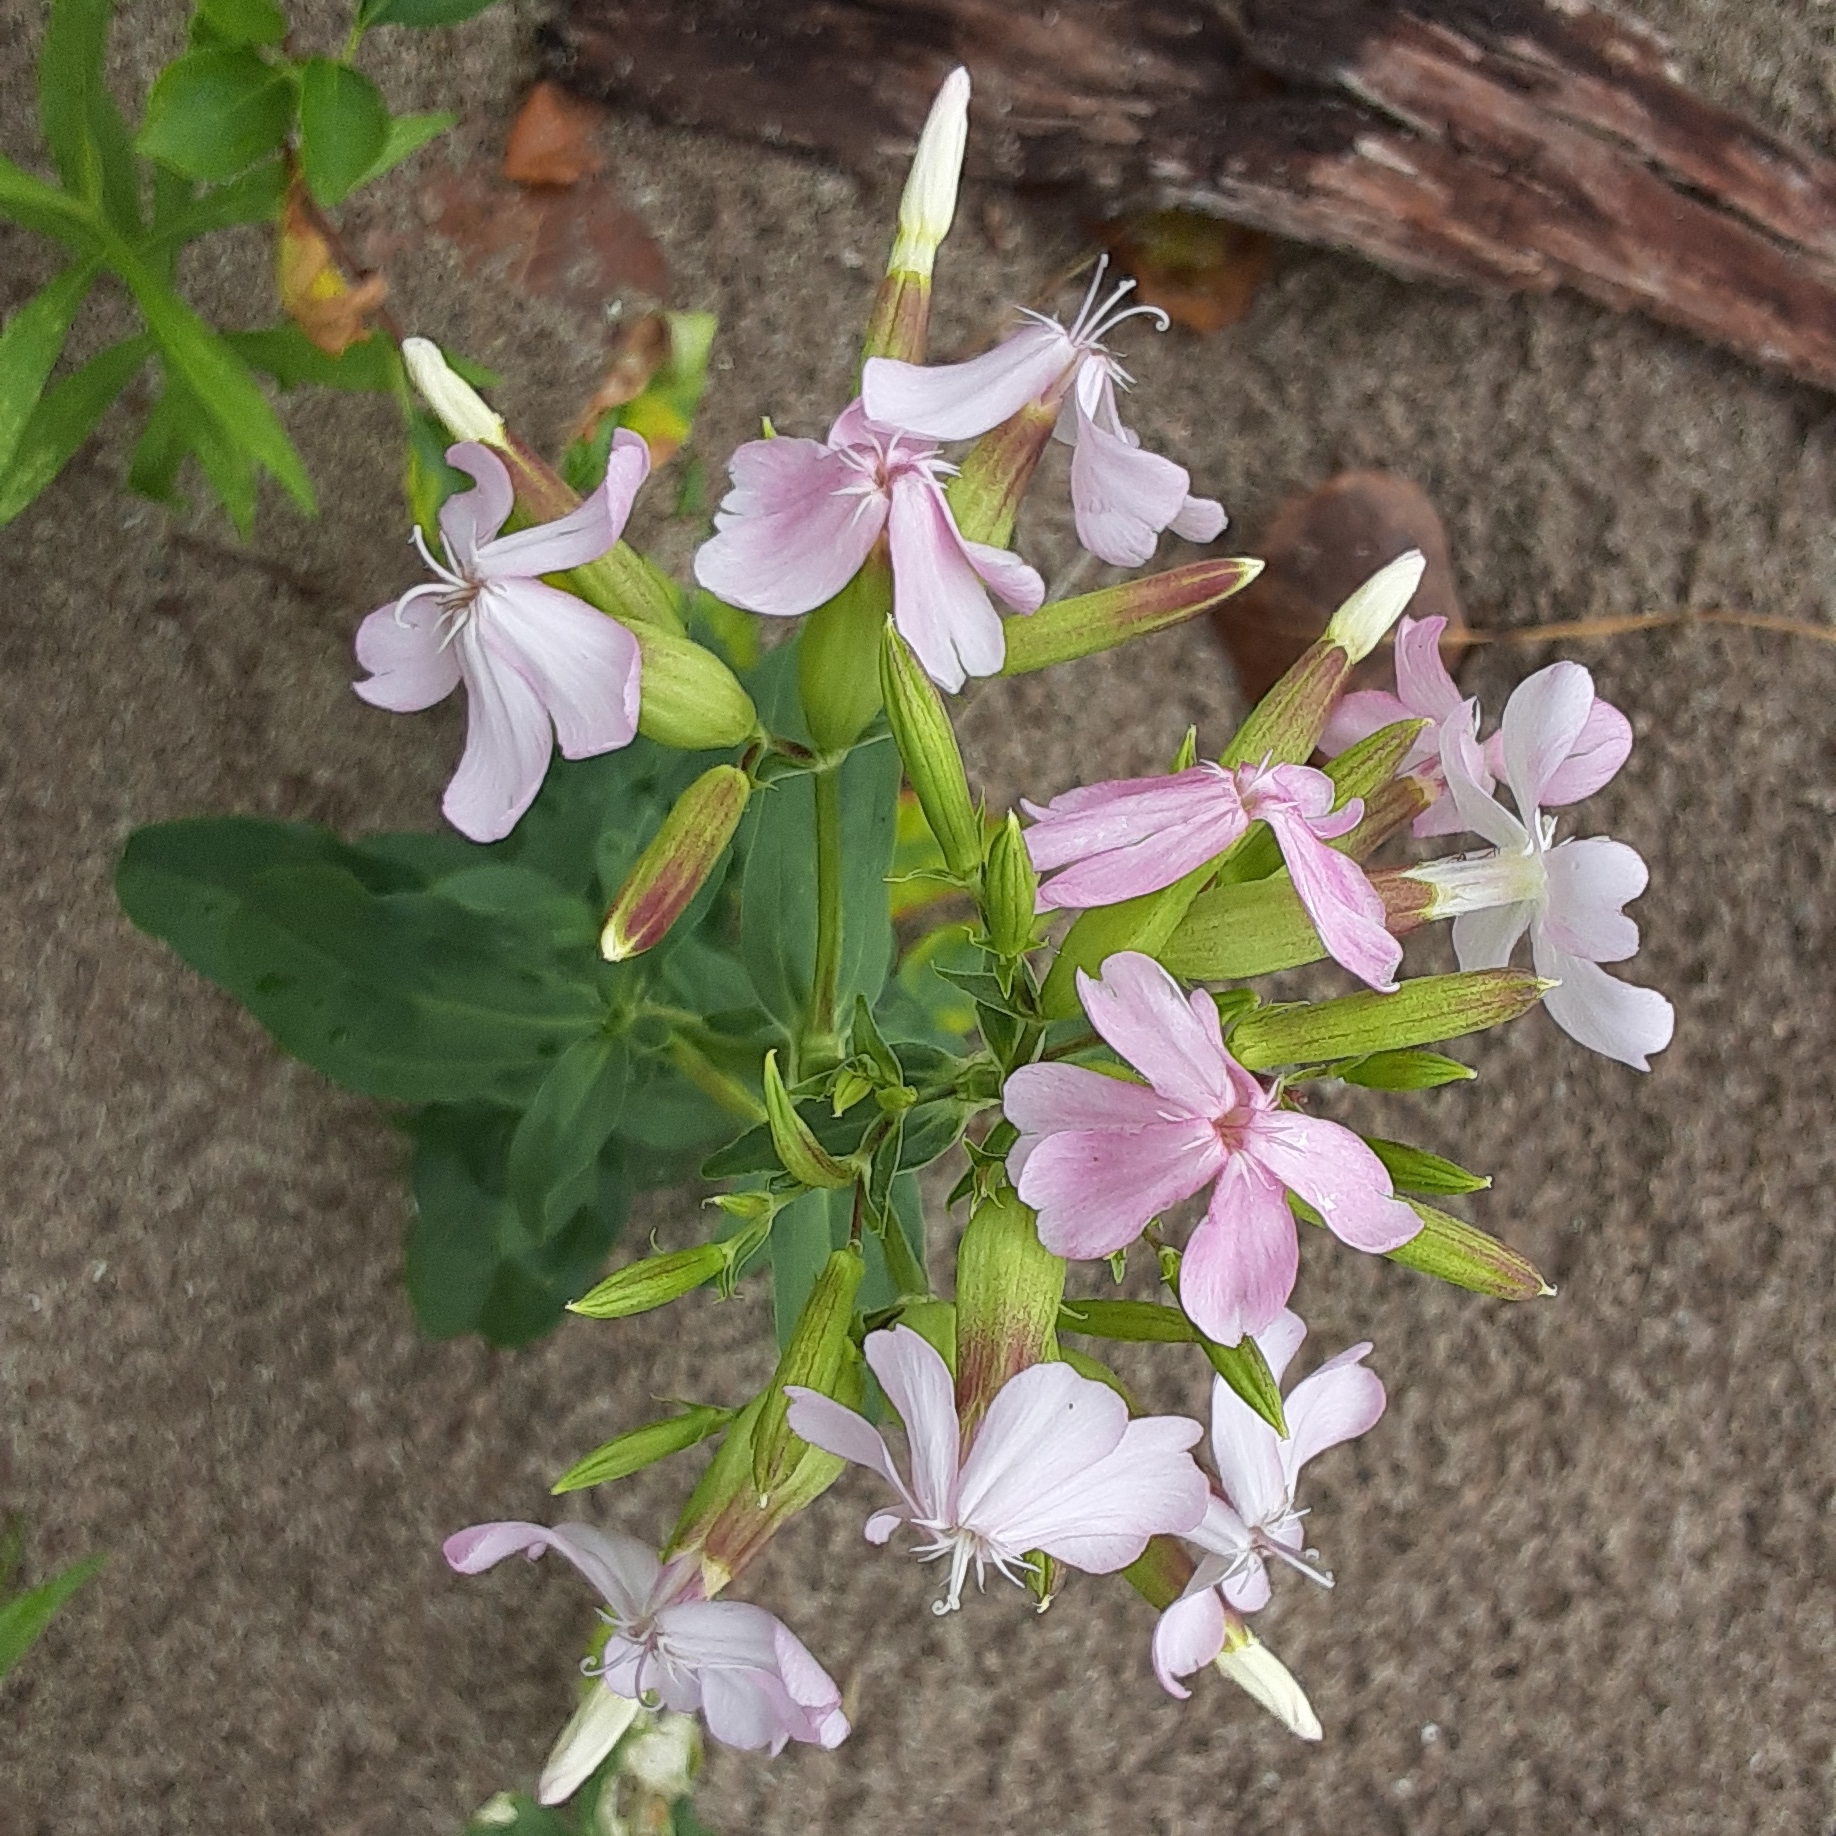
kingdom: Plantae
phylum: Tracheophyta
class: Magnoliopsida
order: Caryophyllales
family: Caryophyllaceae
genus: Saponaria
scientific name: Saponaria officinalis
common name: Soapwort
